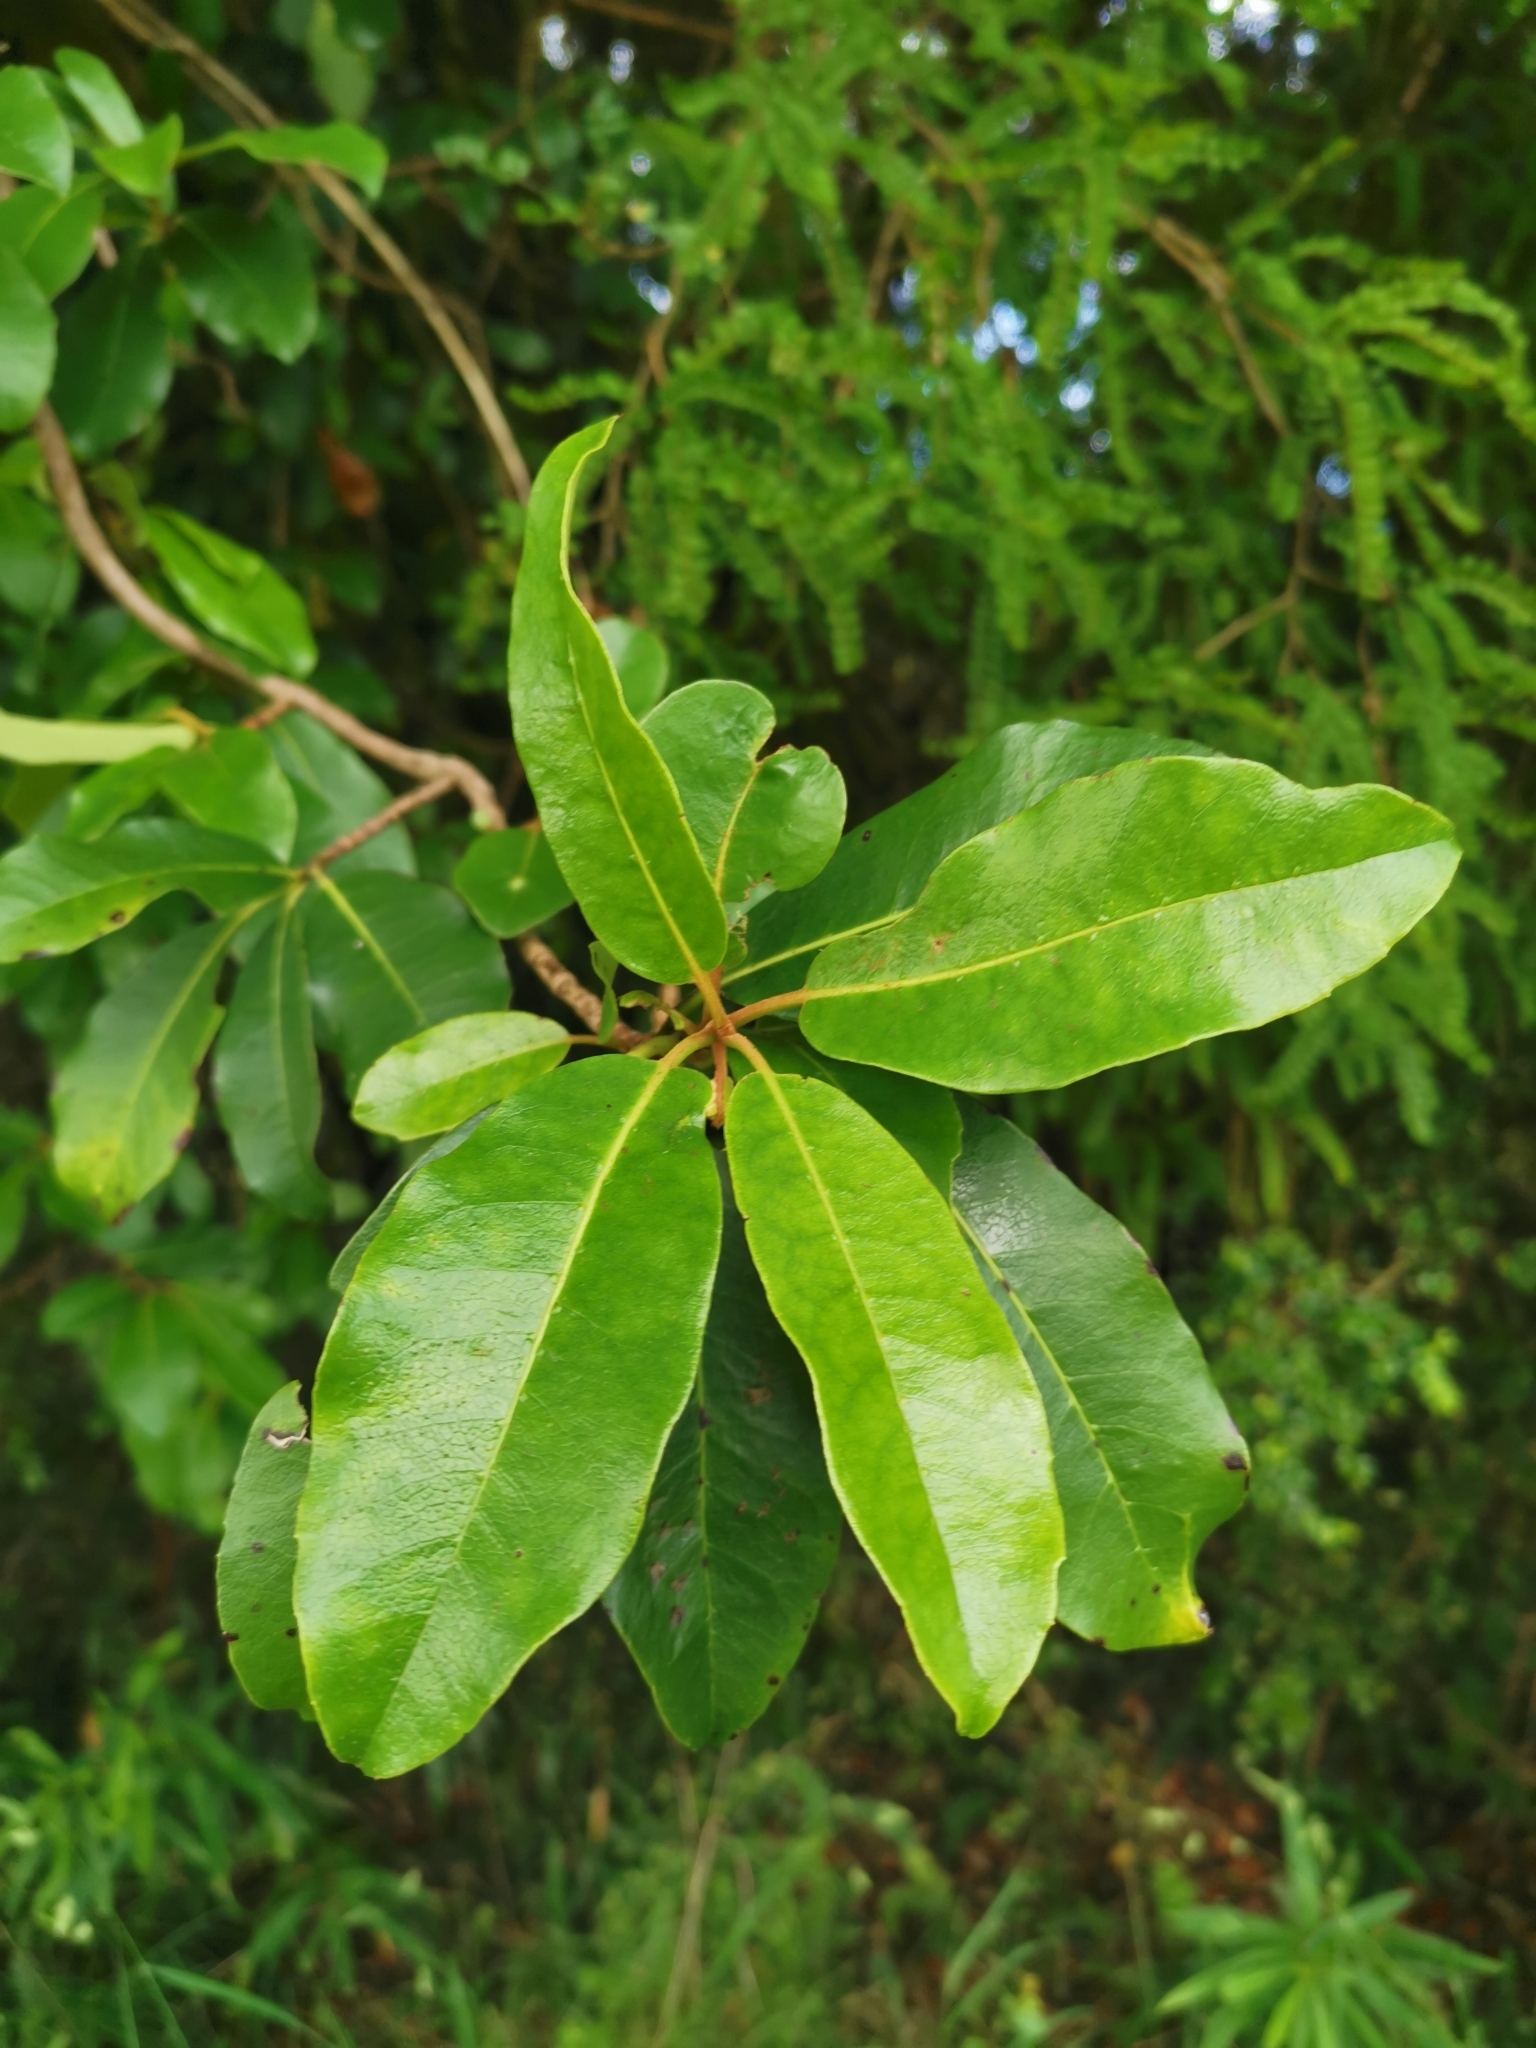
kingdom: Plantae
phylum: Tracheophyta
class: Magnoliopsida
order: Cornales
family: Hydrangeaceae
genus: Hydrangea
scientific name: Hydrangea serratifolia
